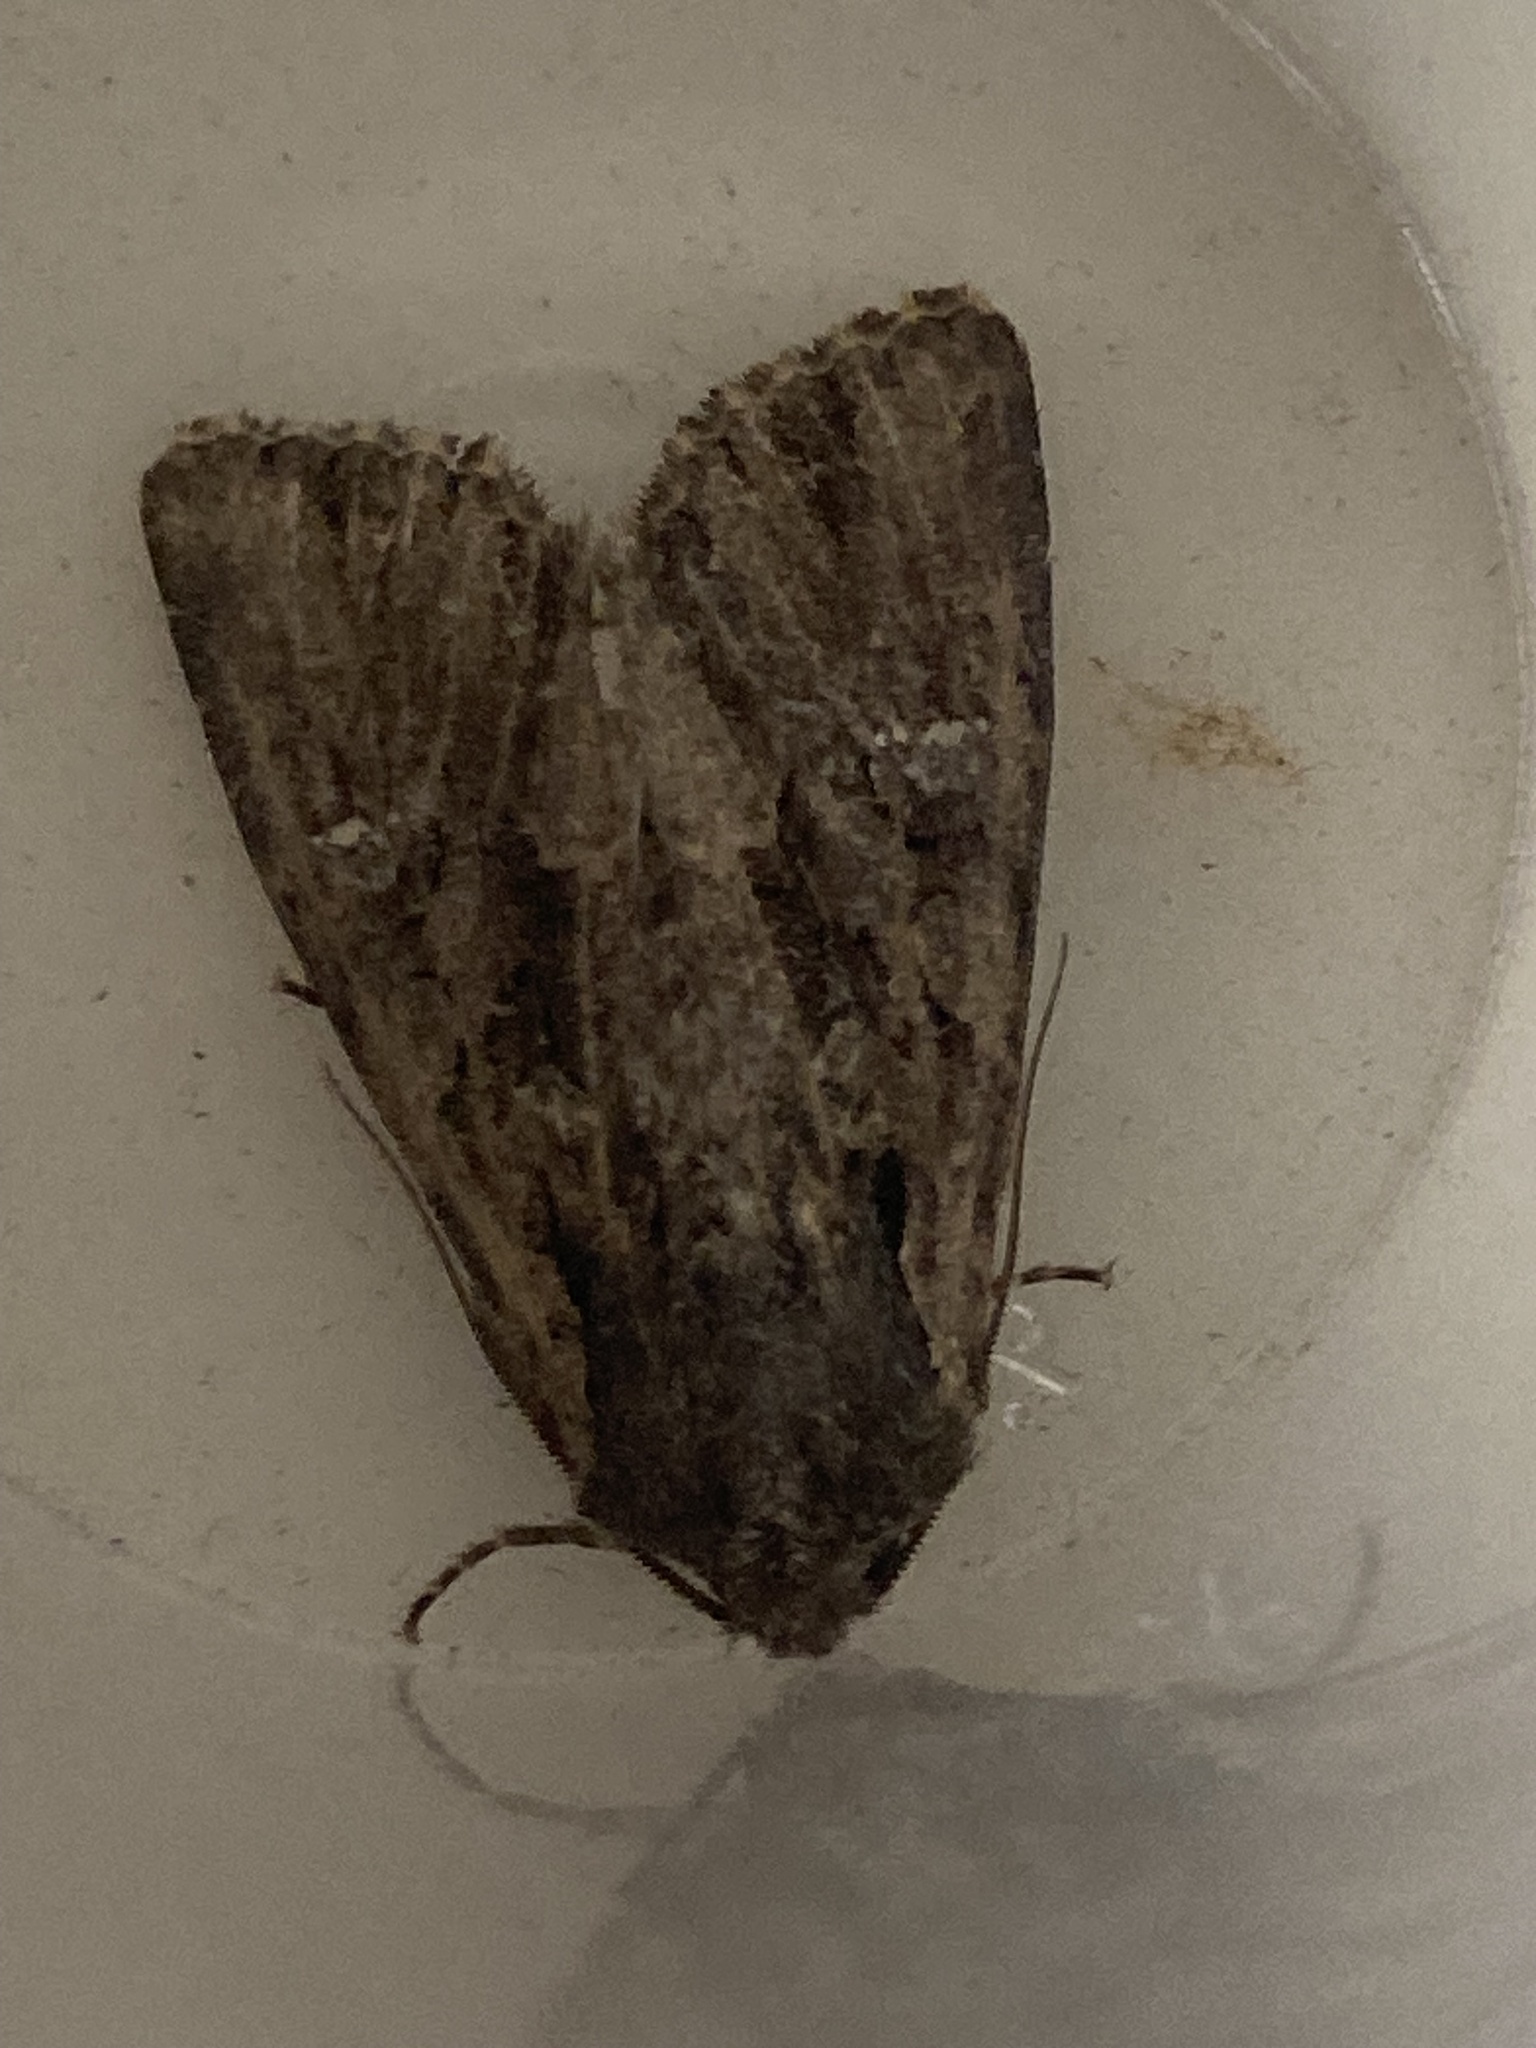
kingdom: Animalia
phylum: Arthropoda
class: Insecta
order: Lepidoptera
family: Noctuidae
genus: Mniotype
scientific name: Mniotype occidentalis
